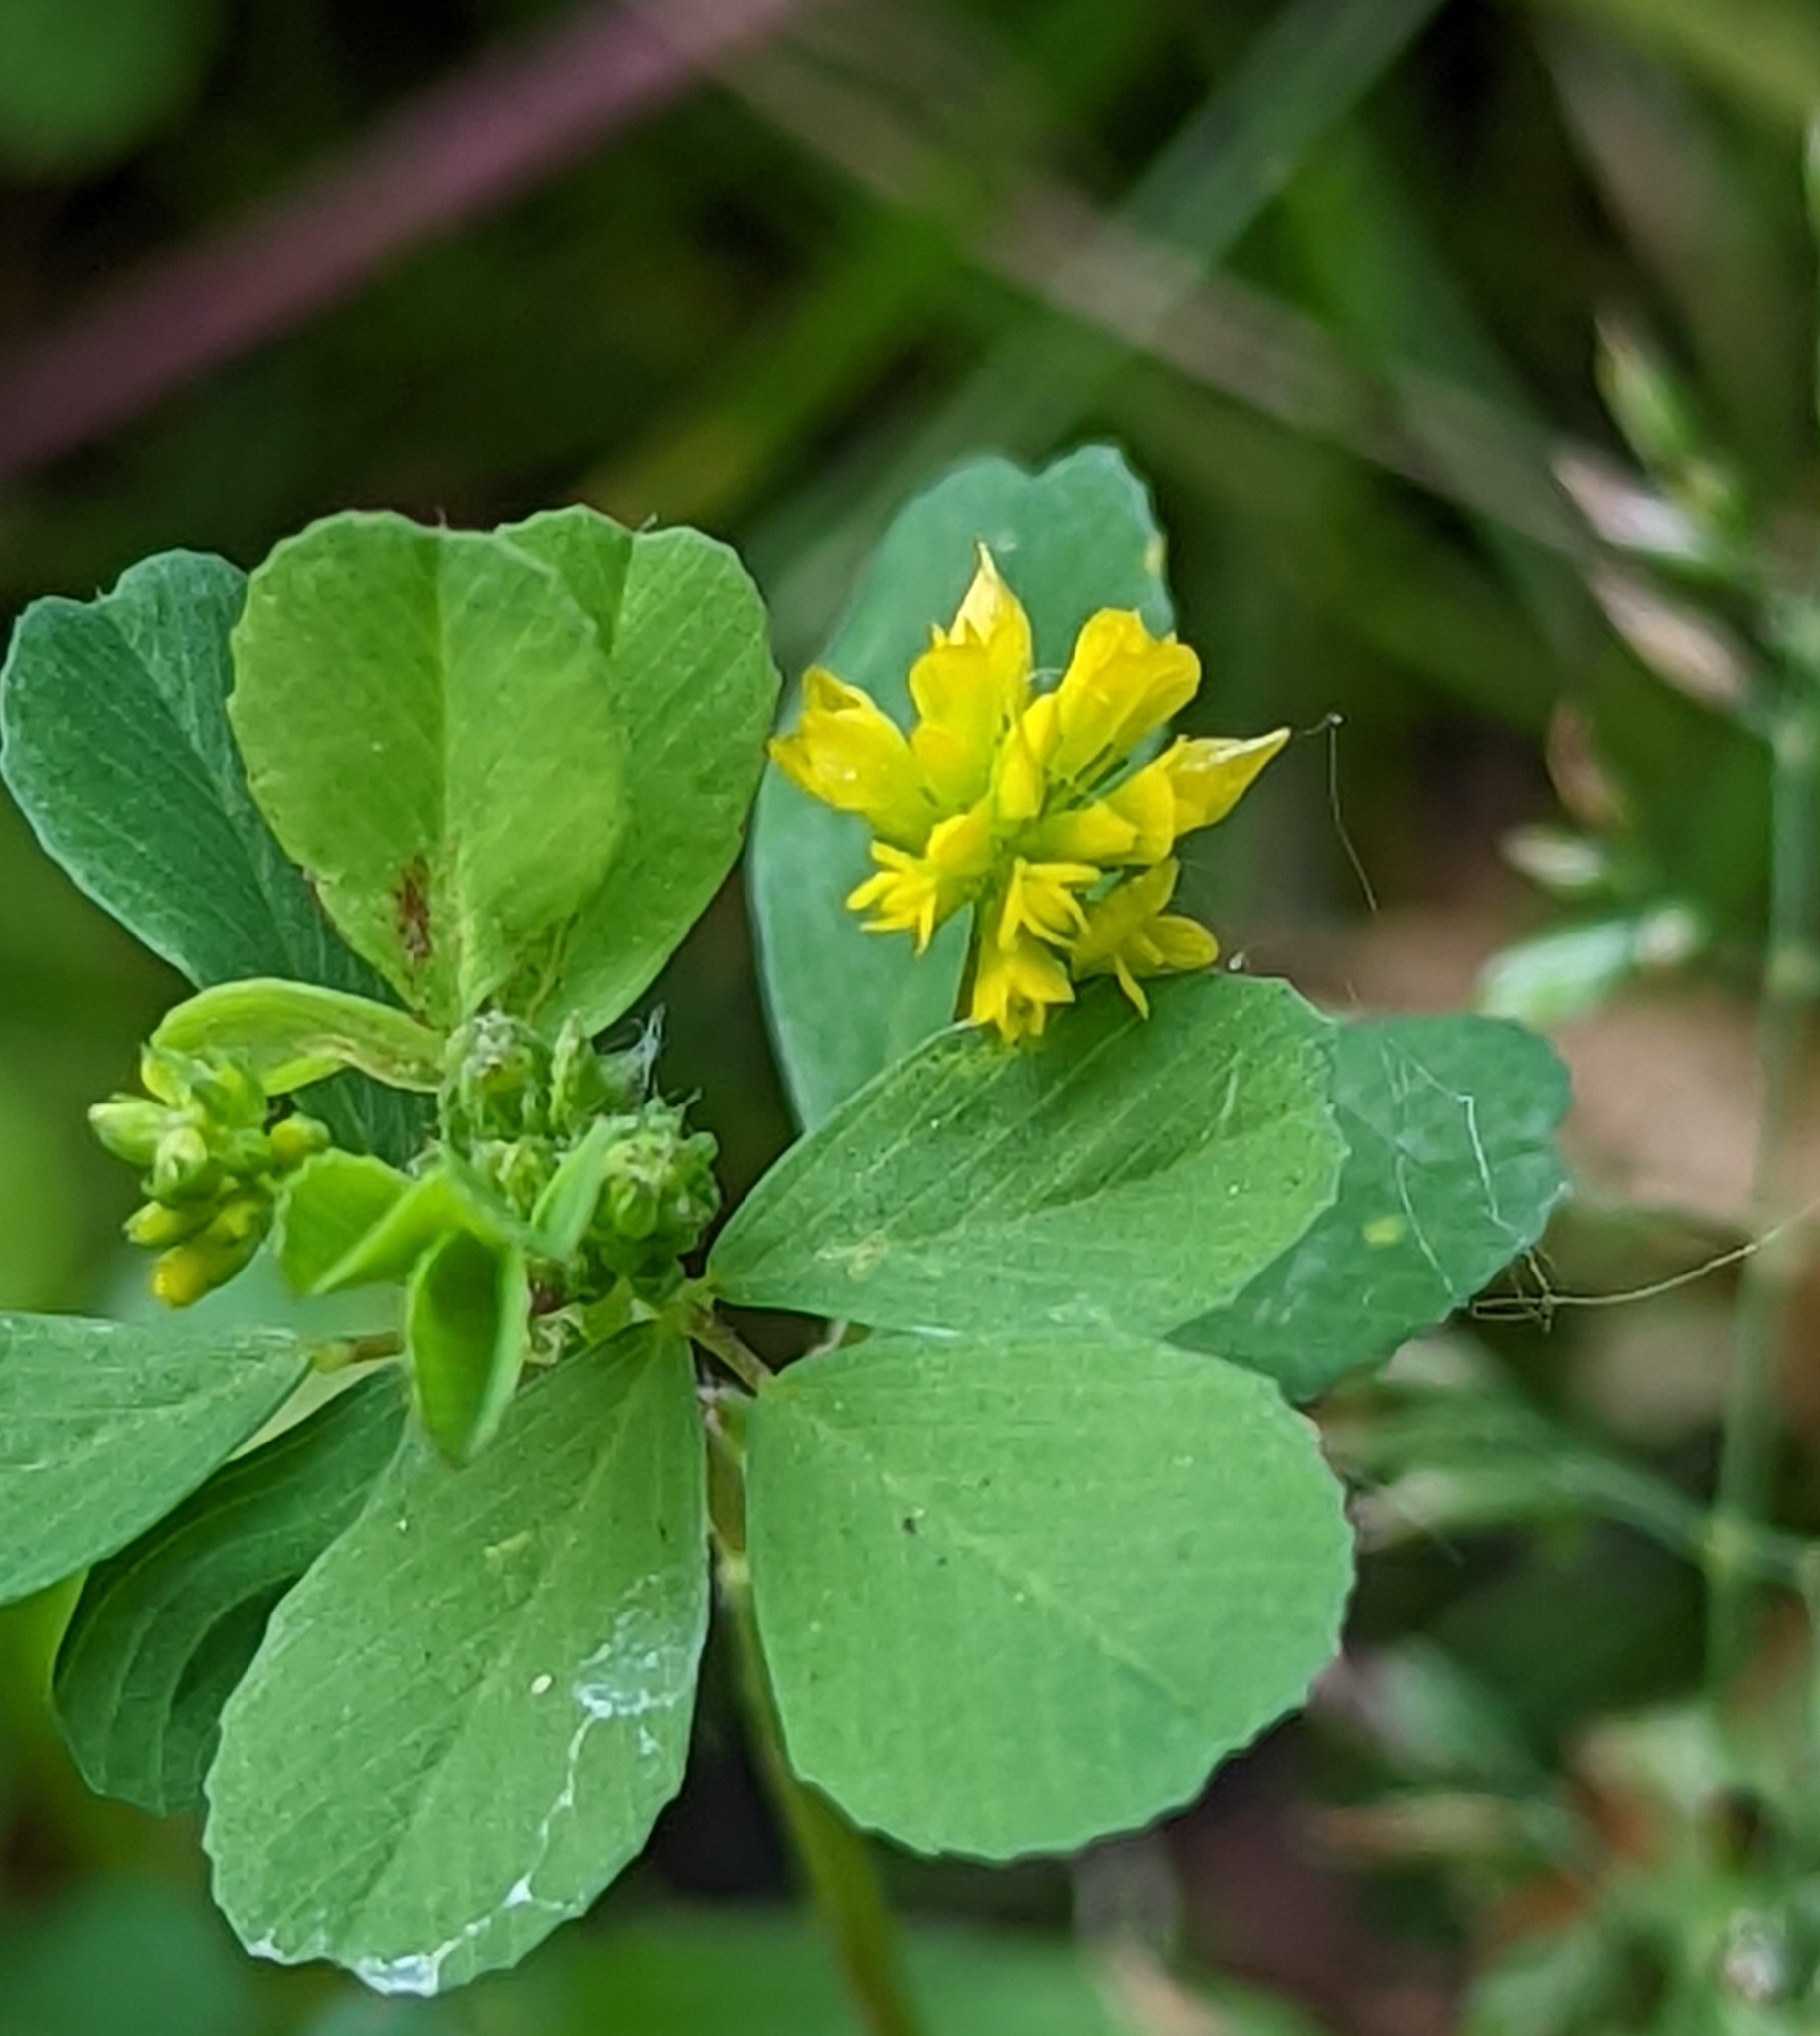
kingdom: Plantae
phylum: Tracheophyta
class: Magnoliopsida
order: Fabales
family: Fabaceae
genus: Trifolium
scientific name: Trifolium dubium
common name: Suckling clover
